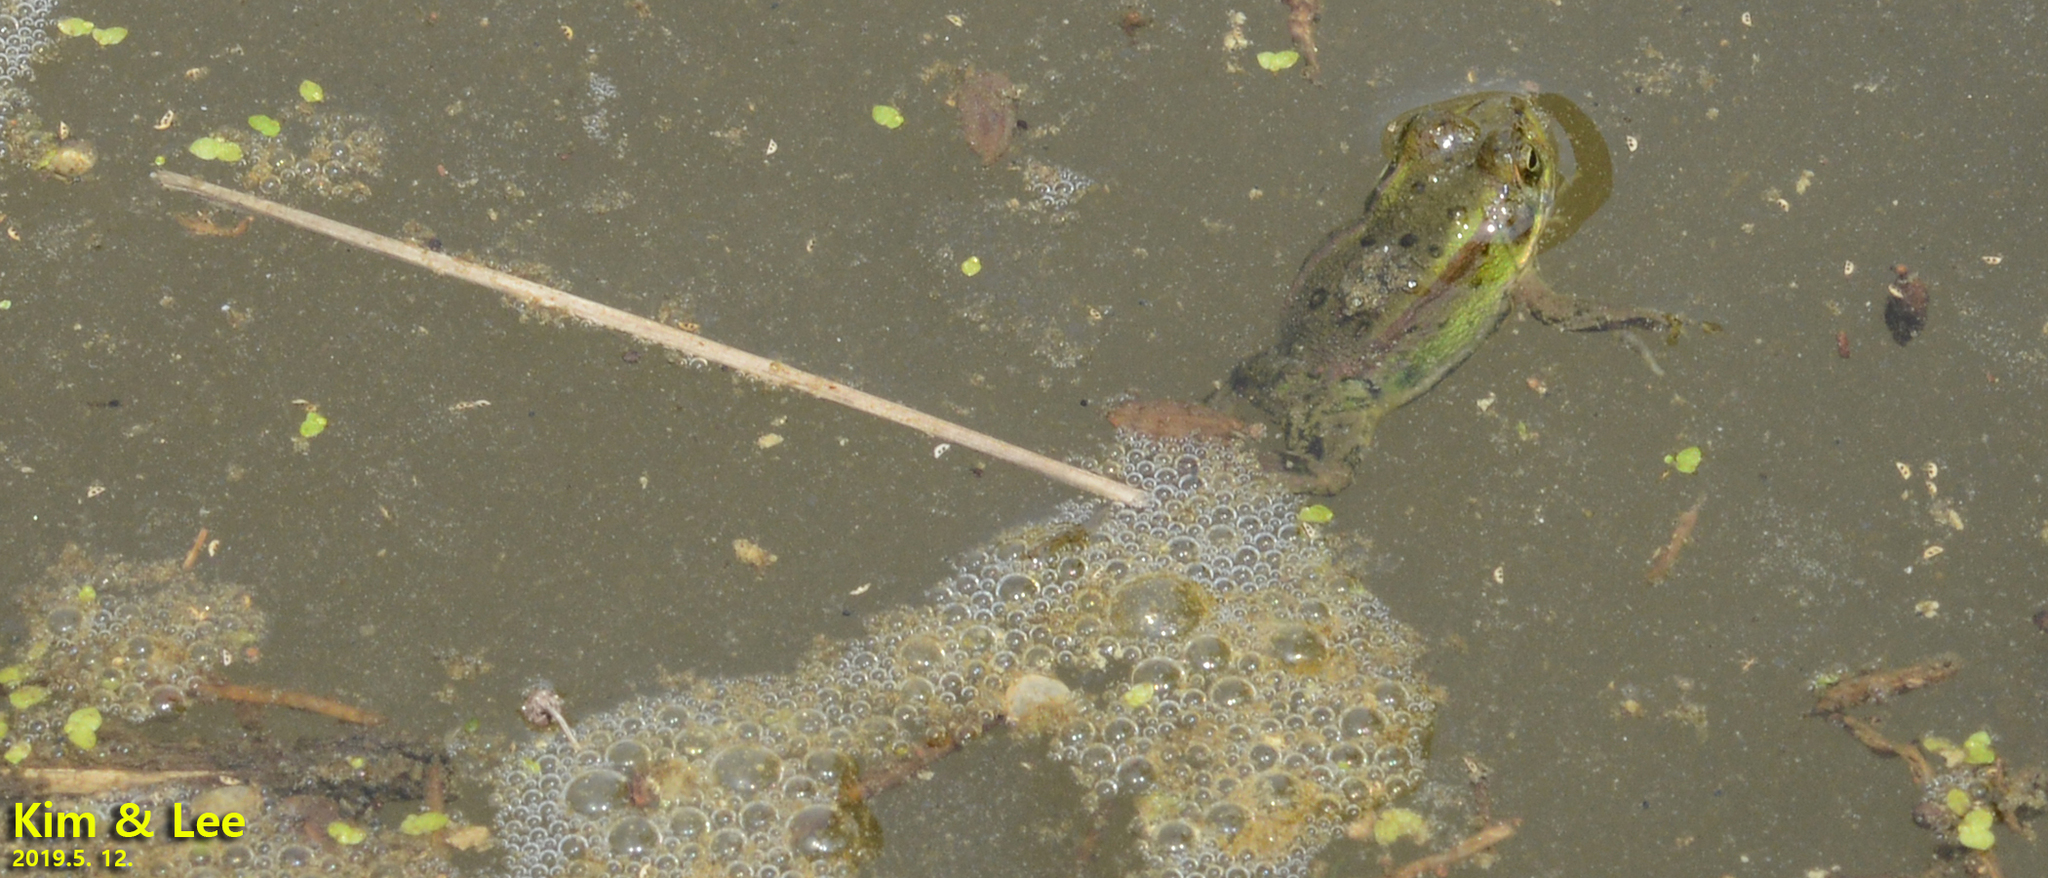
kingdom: Animalia
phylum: Chordata
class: Amphibia
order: Anura
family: Ranidae
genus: Pelophylax
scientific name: Pelophylax chosenicus
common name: Gold-spotted pond frog
